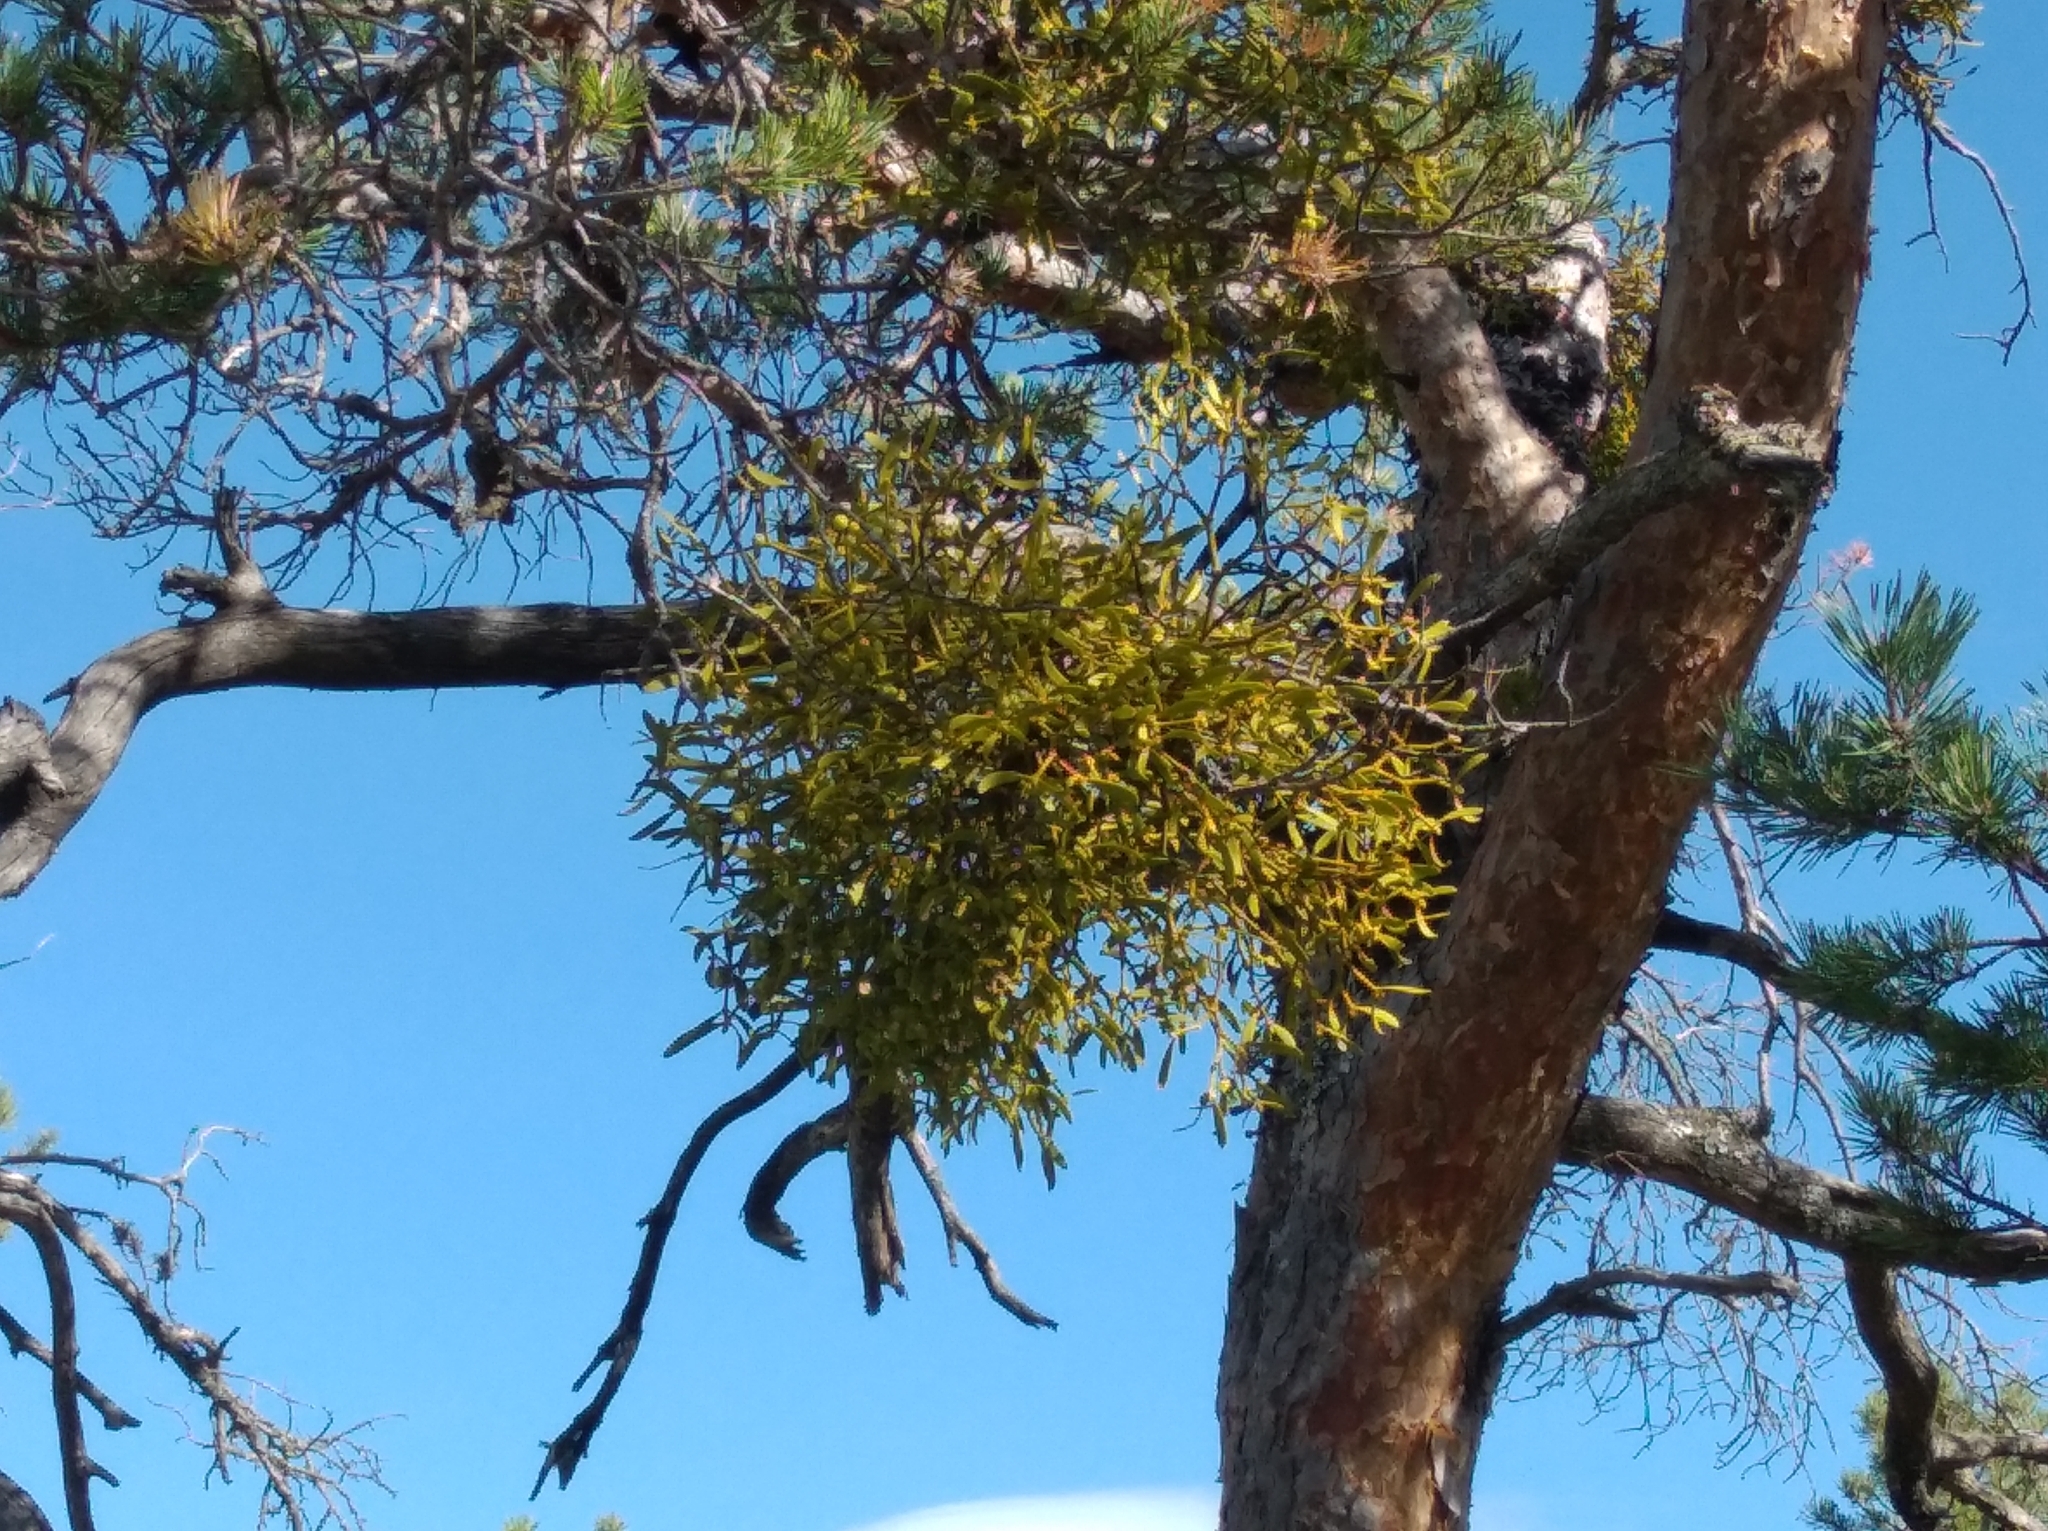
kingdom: Plantae
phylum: Tracheophyta
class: Magnoliopsida
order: Santalales
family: Viscaceae
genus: Viscum
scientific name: Viscum album
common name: Mistletoe
